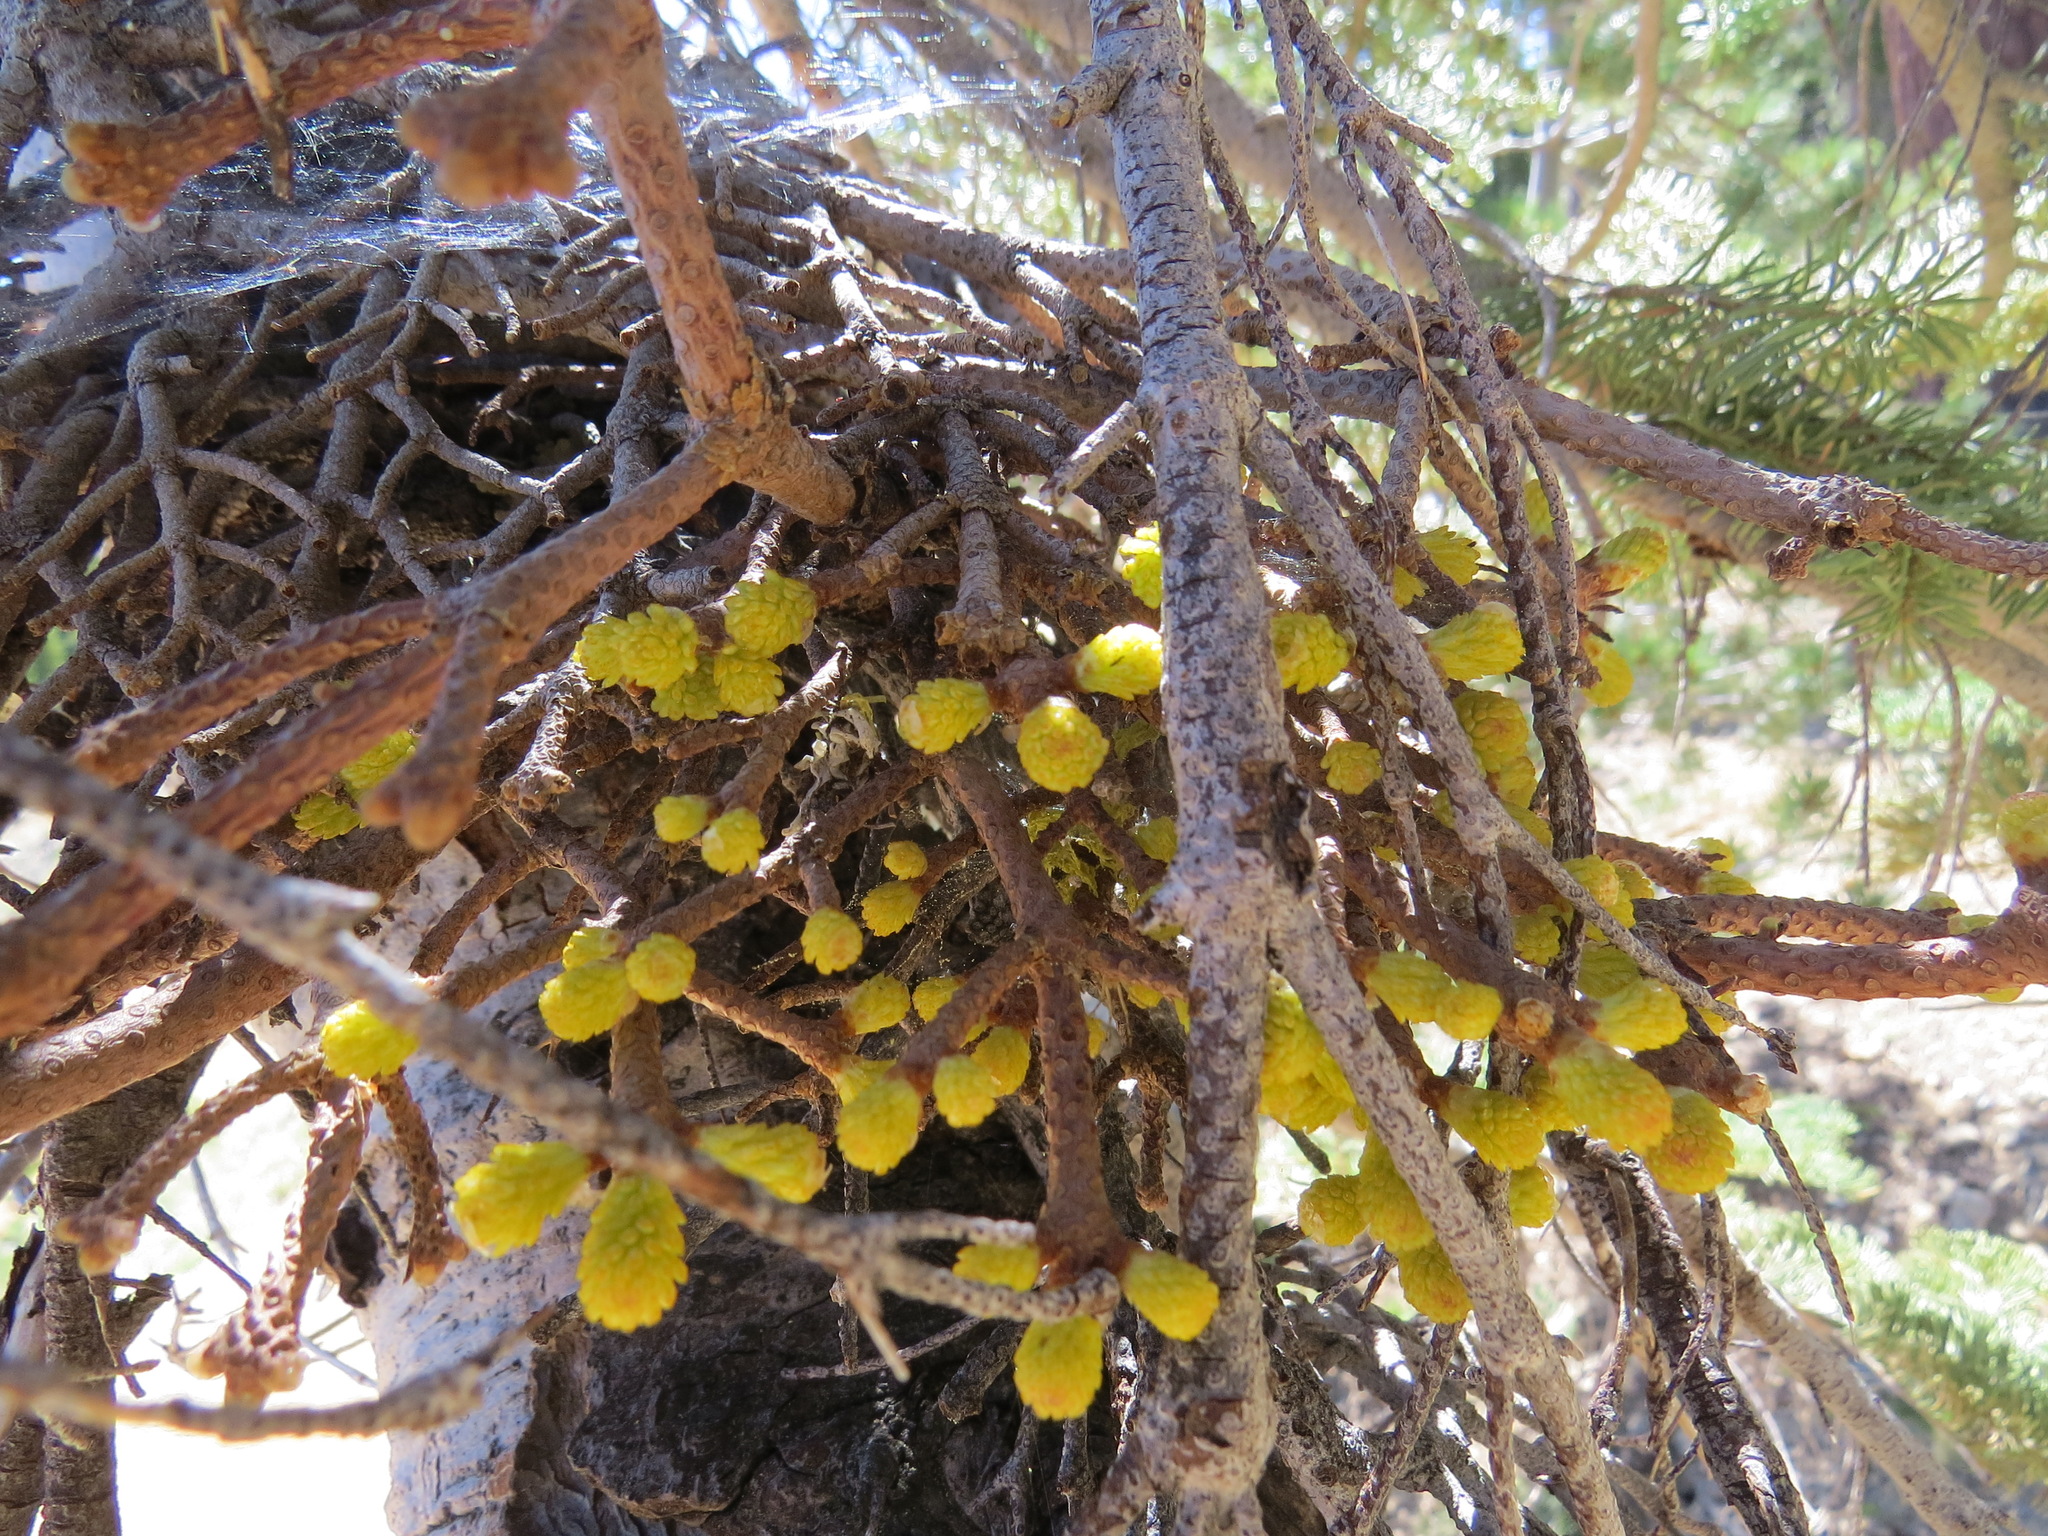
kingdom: Fungi
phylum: Basidiomycota
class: Pucciniomycetes
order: Pucciniales
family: Pucciniastraceae
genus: Melampsorella
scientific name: Melampsorella elatina
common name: Fir broom rust
